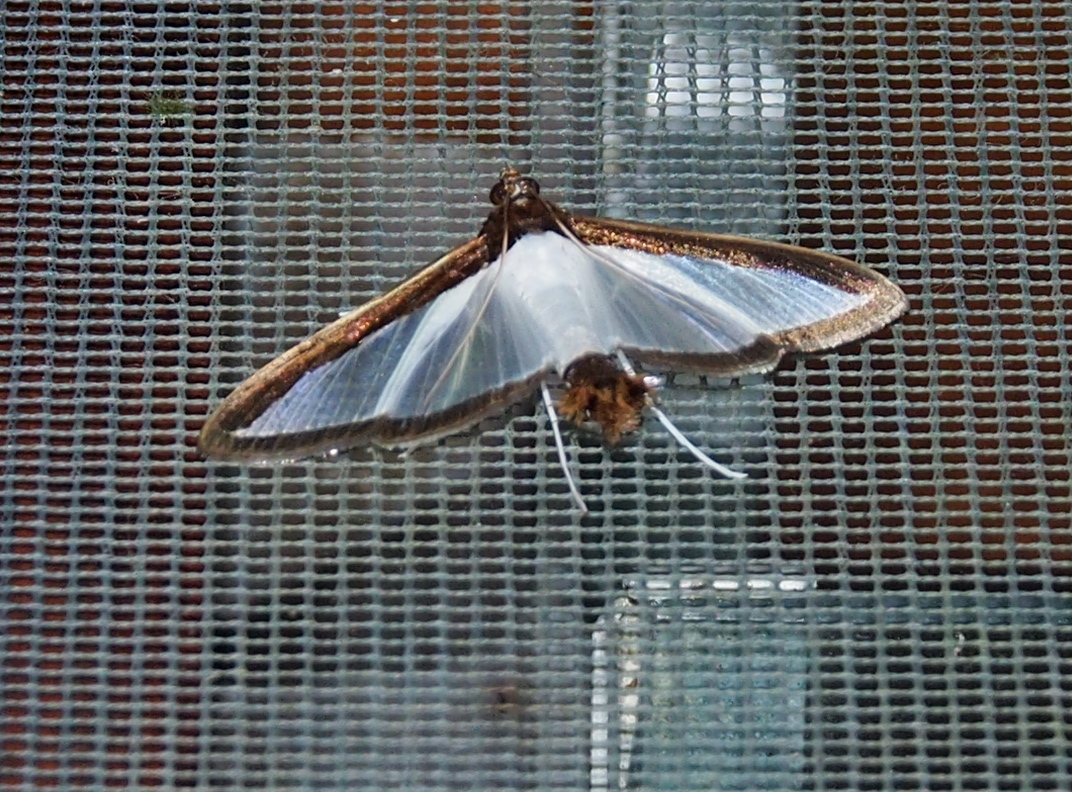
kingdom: Animalia
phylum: Arthropoda
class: Insecta
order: Lepidoptera
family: Crambidae
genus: Diaphania
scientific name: Diaphania superalis
